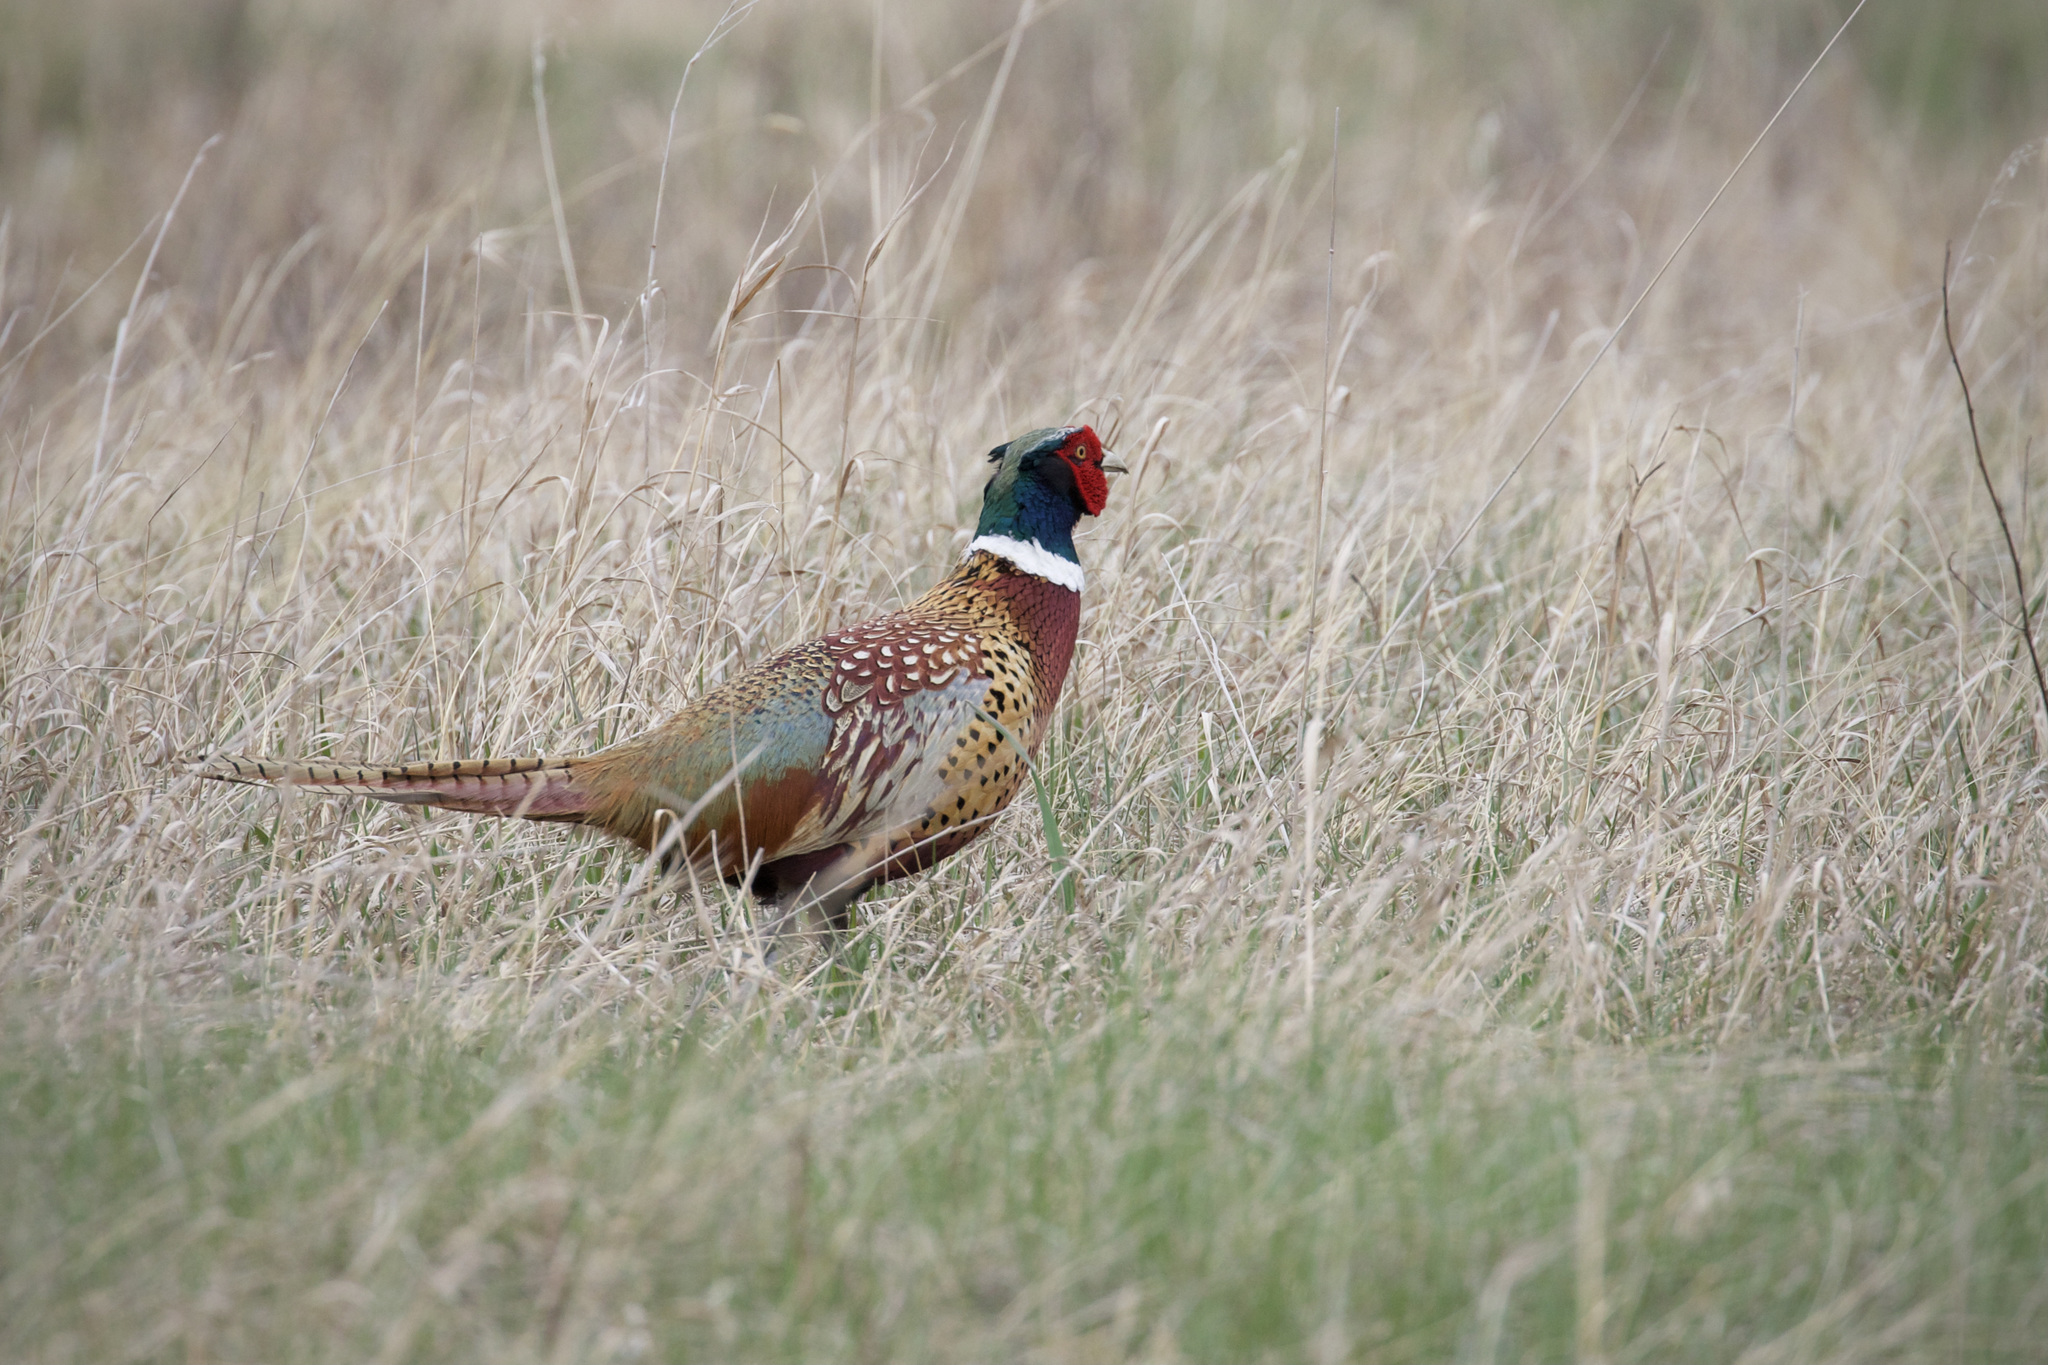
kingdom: Animalia
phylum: Chordata
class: Aves
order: Galliformes
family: Phasianidae
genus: Phasianus
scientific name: Phasianus colchicus
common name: Common pheasant
